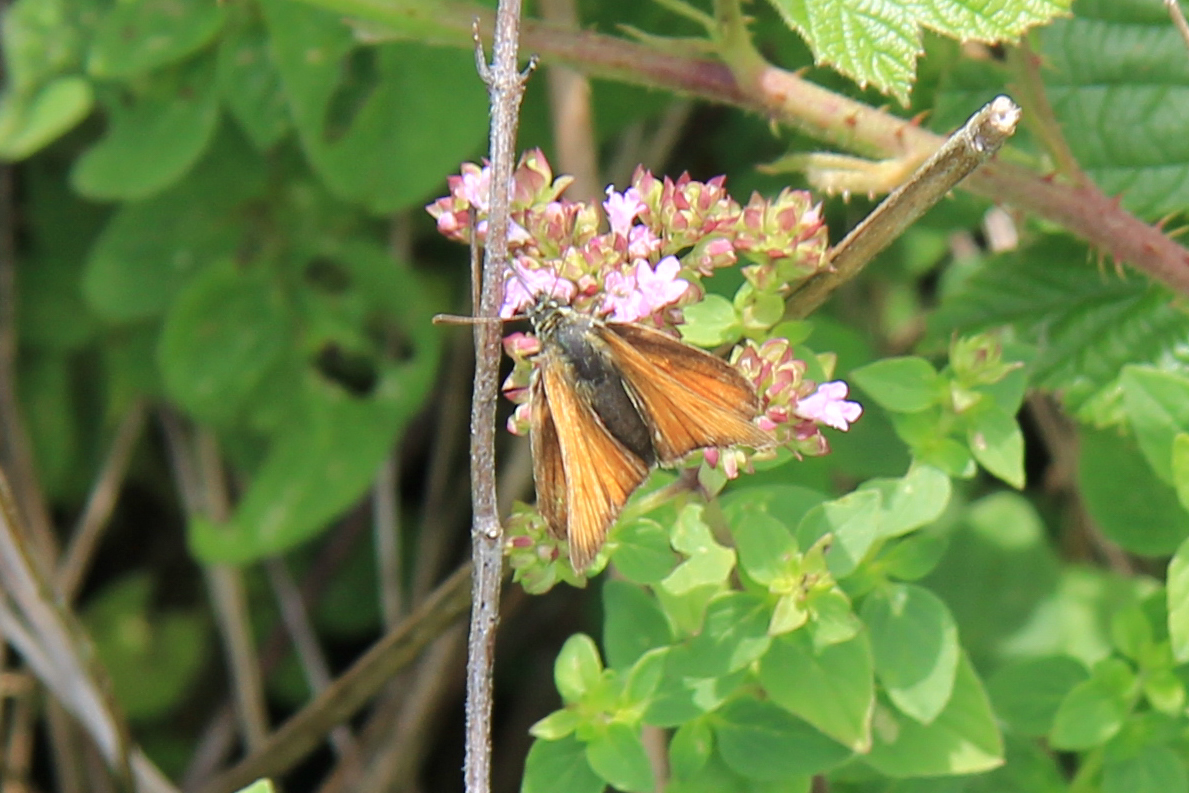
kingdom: Animalia
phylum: Arthropoda
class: Insecta
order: Lepidoptera
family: Hesperiidae
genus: Thymelicus
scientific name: Thymelicus sylvestris
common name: Small skipper
